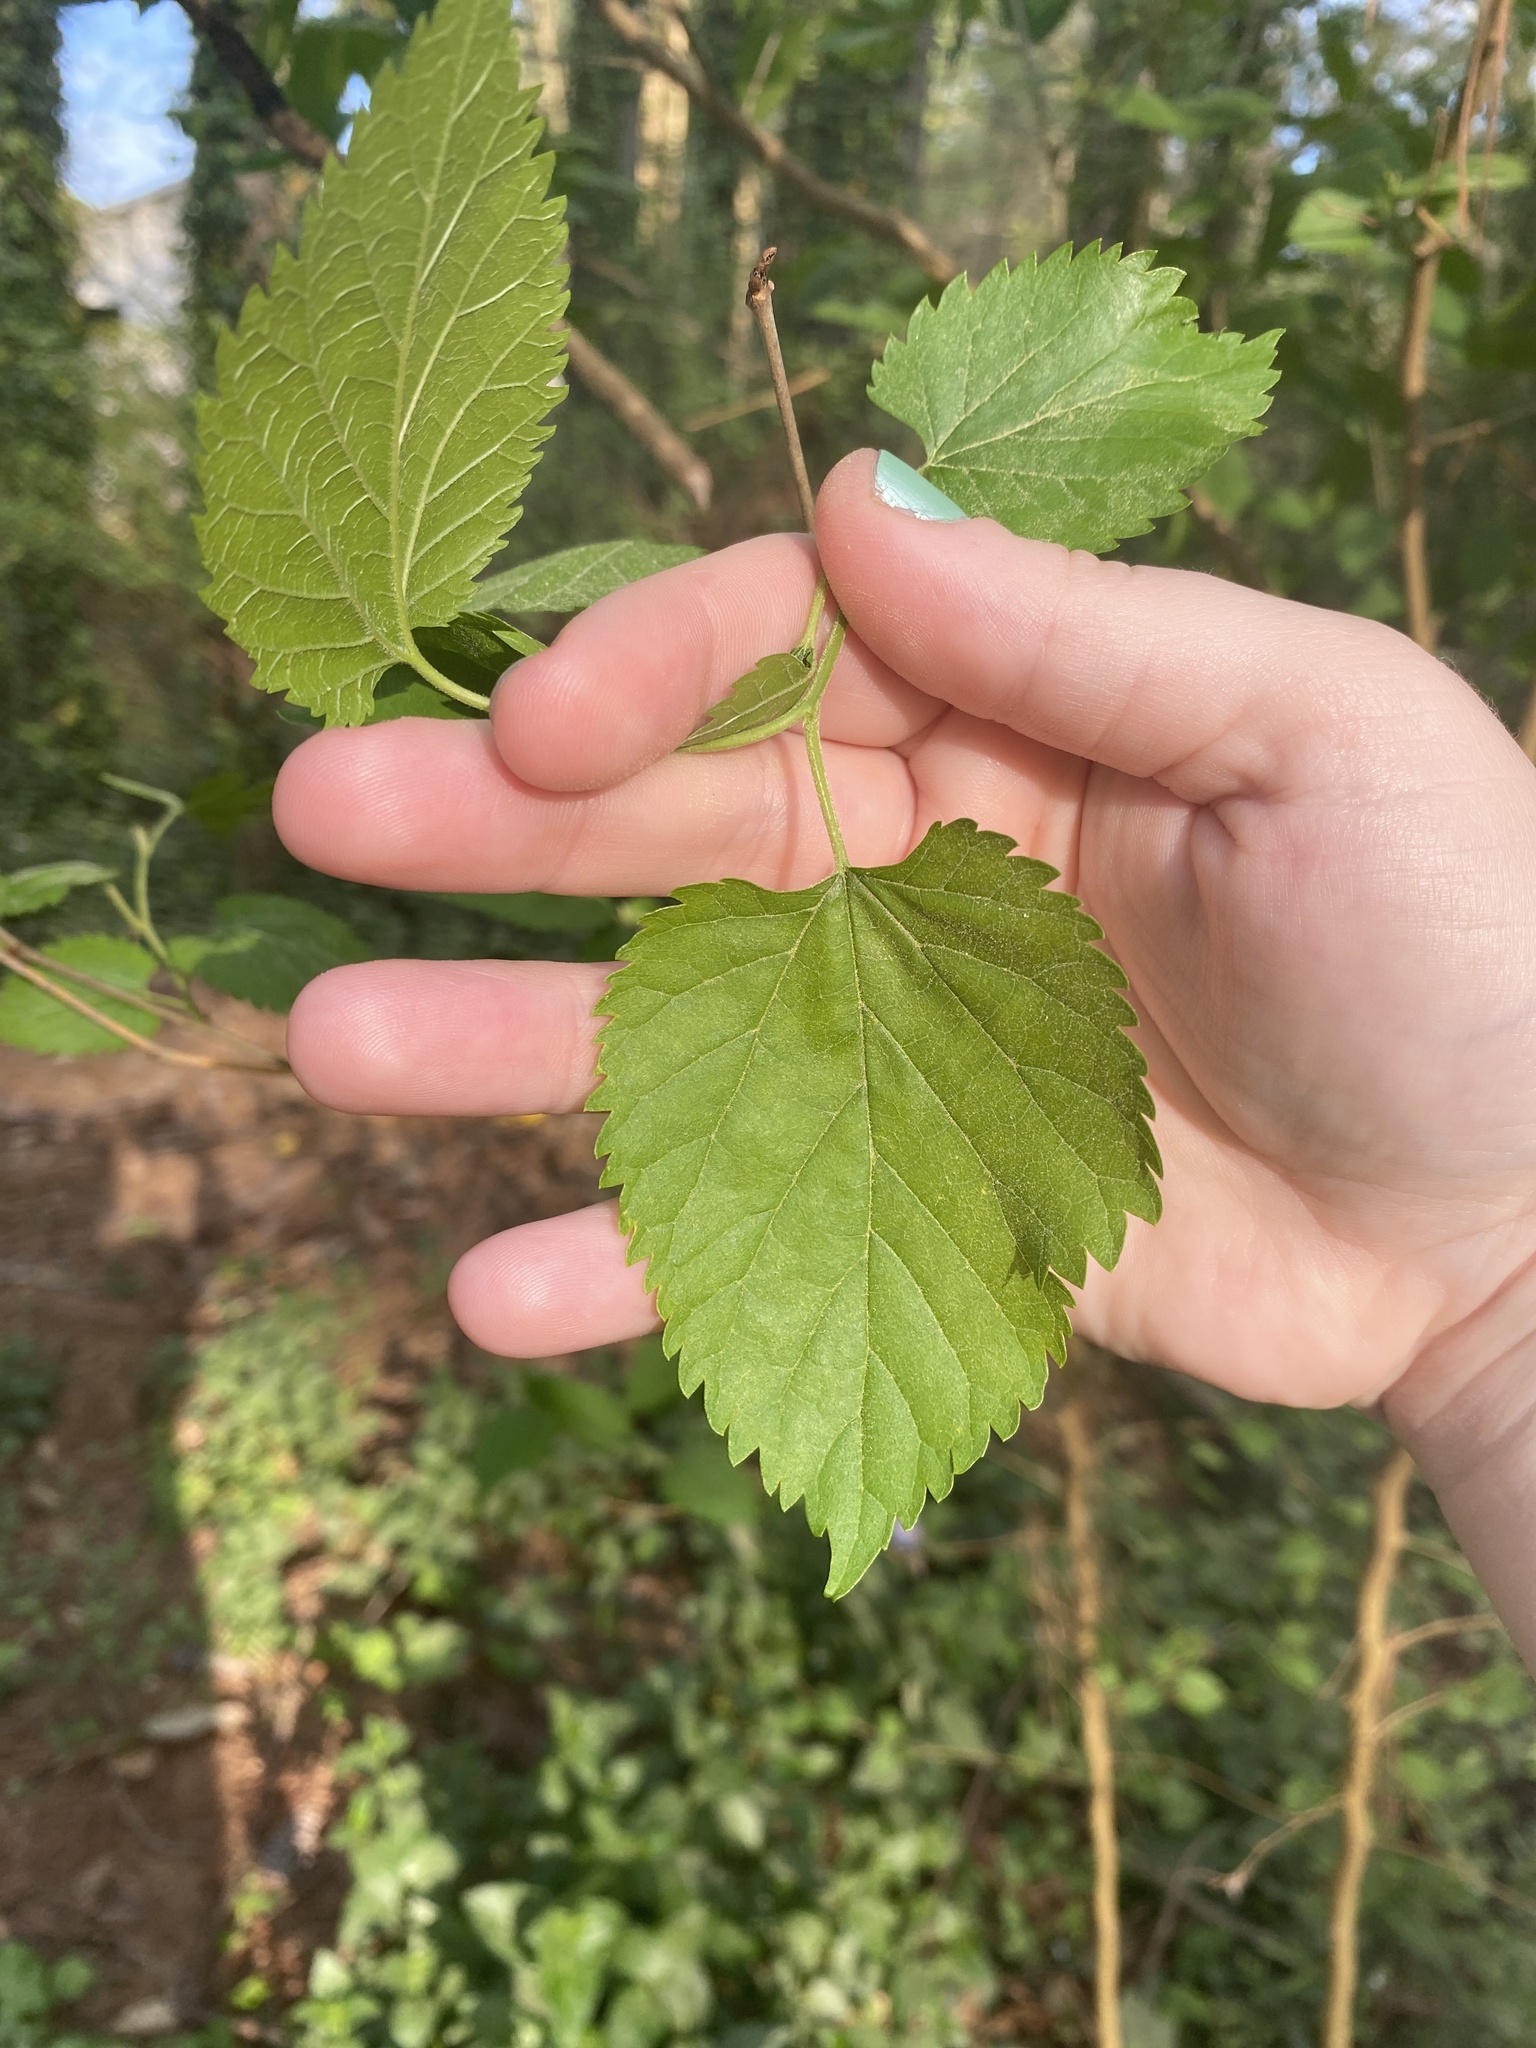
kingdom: Plantae
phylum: Tracheophyta
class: Magnoliopsida
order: Rosales
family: Moraceae
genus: Morus
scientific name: Morus alba
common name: White mulberry
